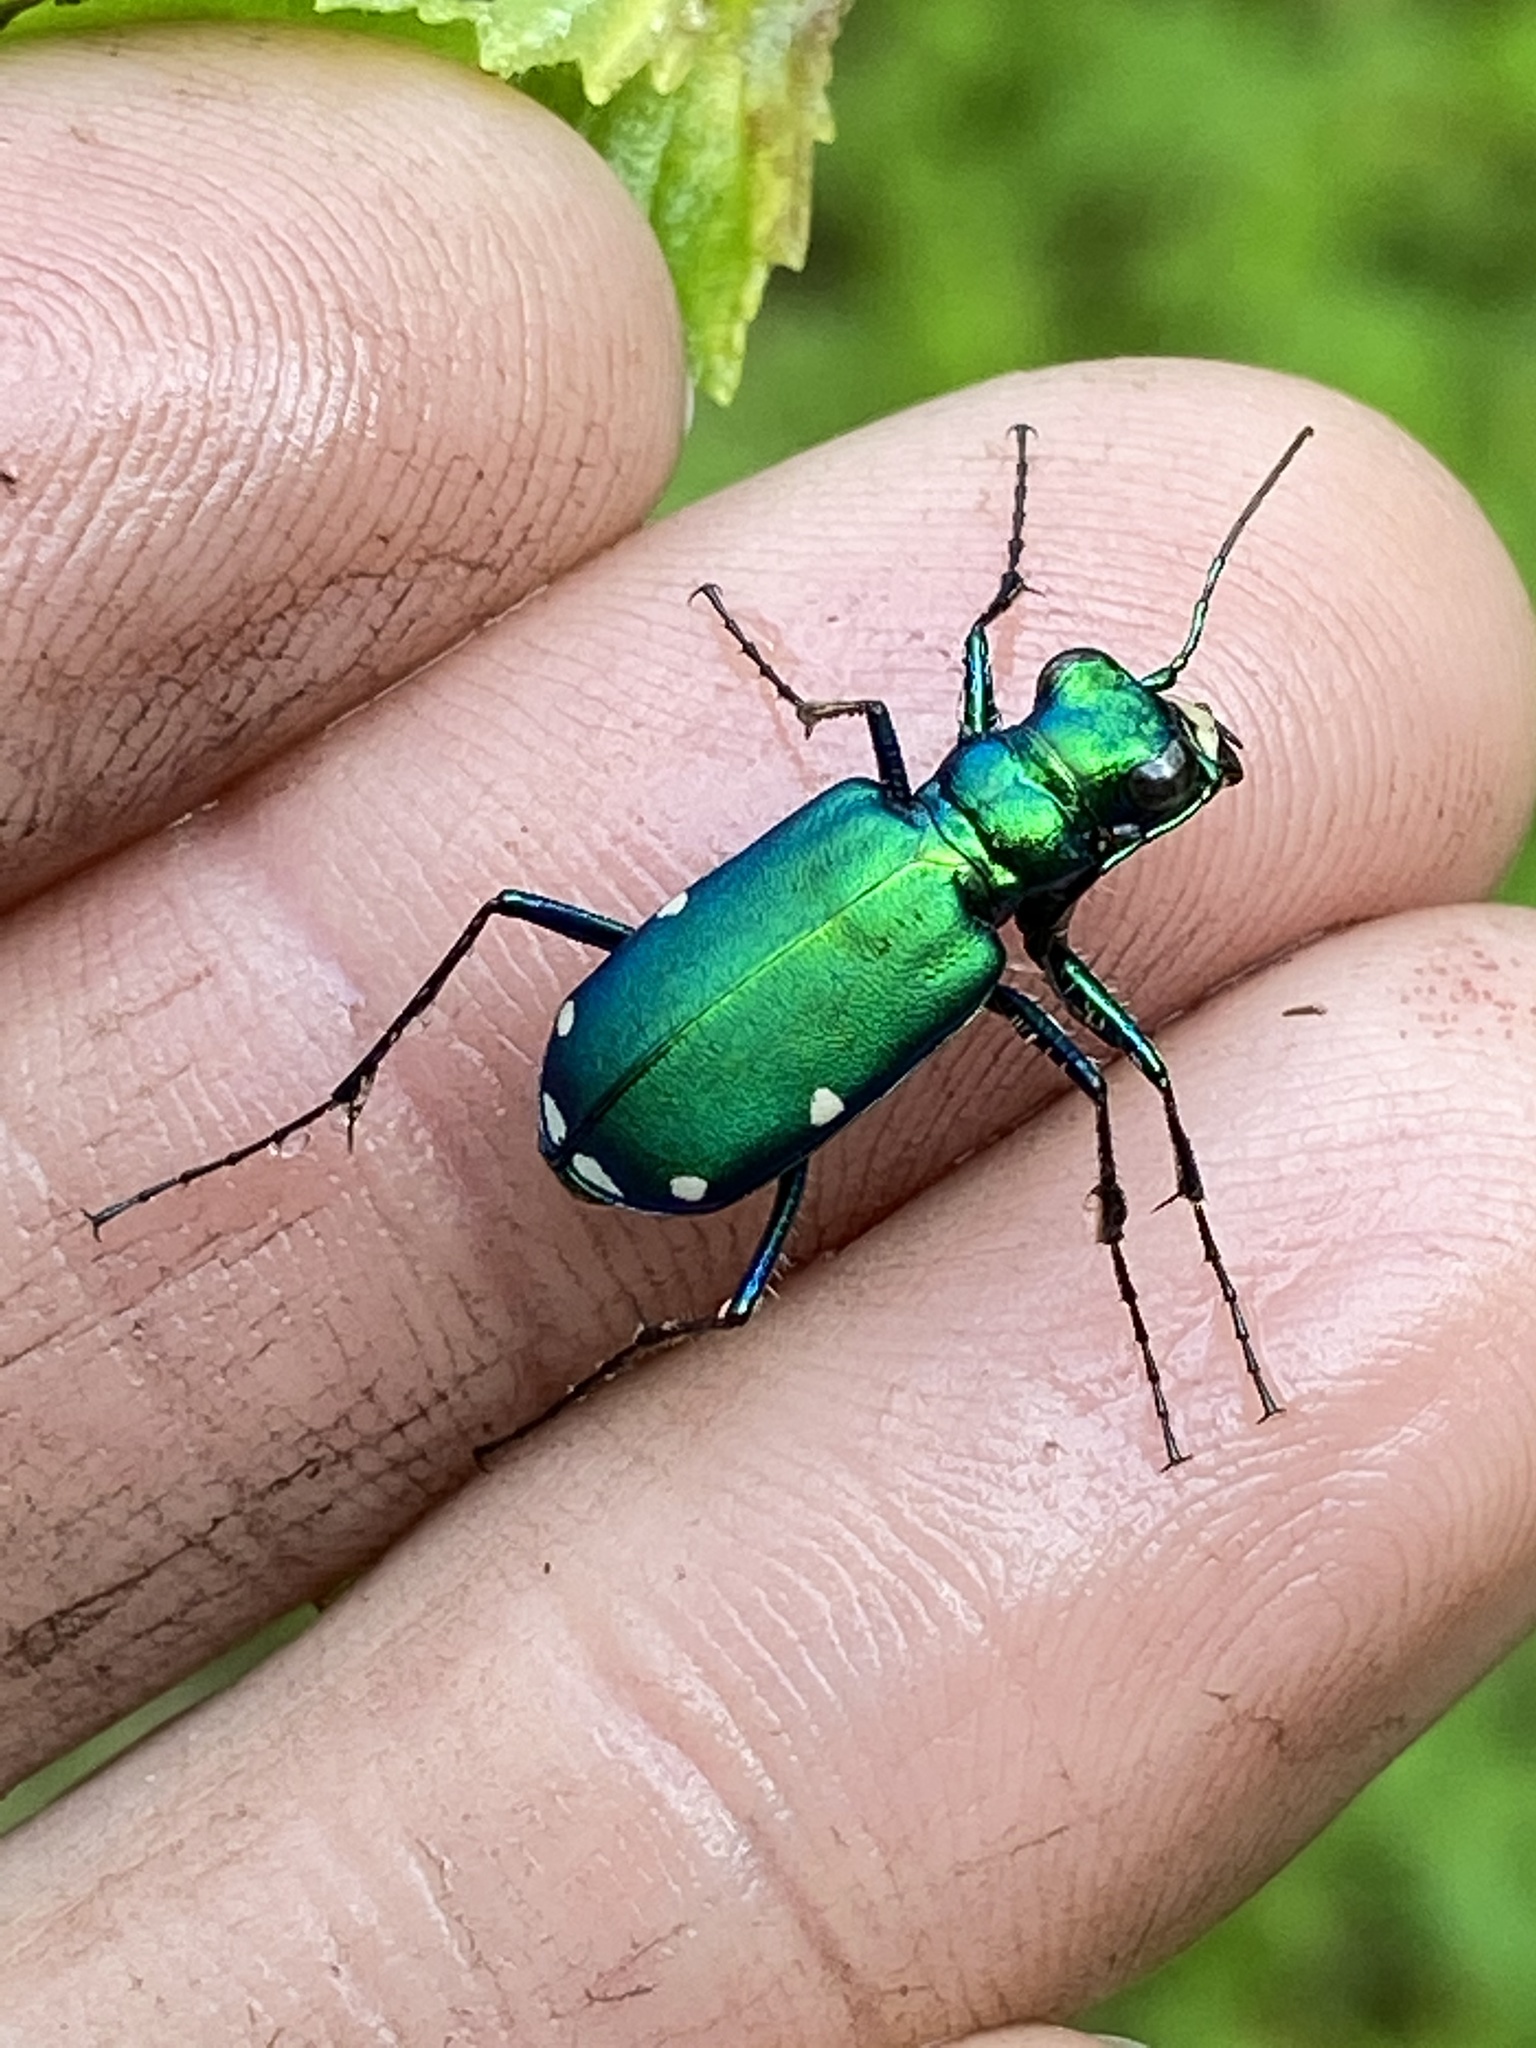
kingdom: Animalia
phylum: Arthropoda
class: Insecta
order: Coleoptera
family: Carabidae
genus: Cicindela
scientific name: Cicindela sexguttata
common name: Six-spotted tiger beetle
